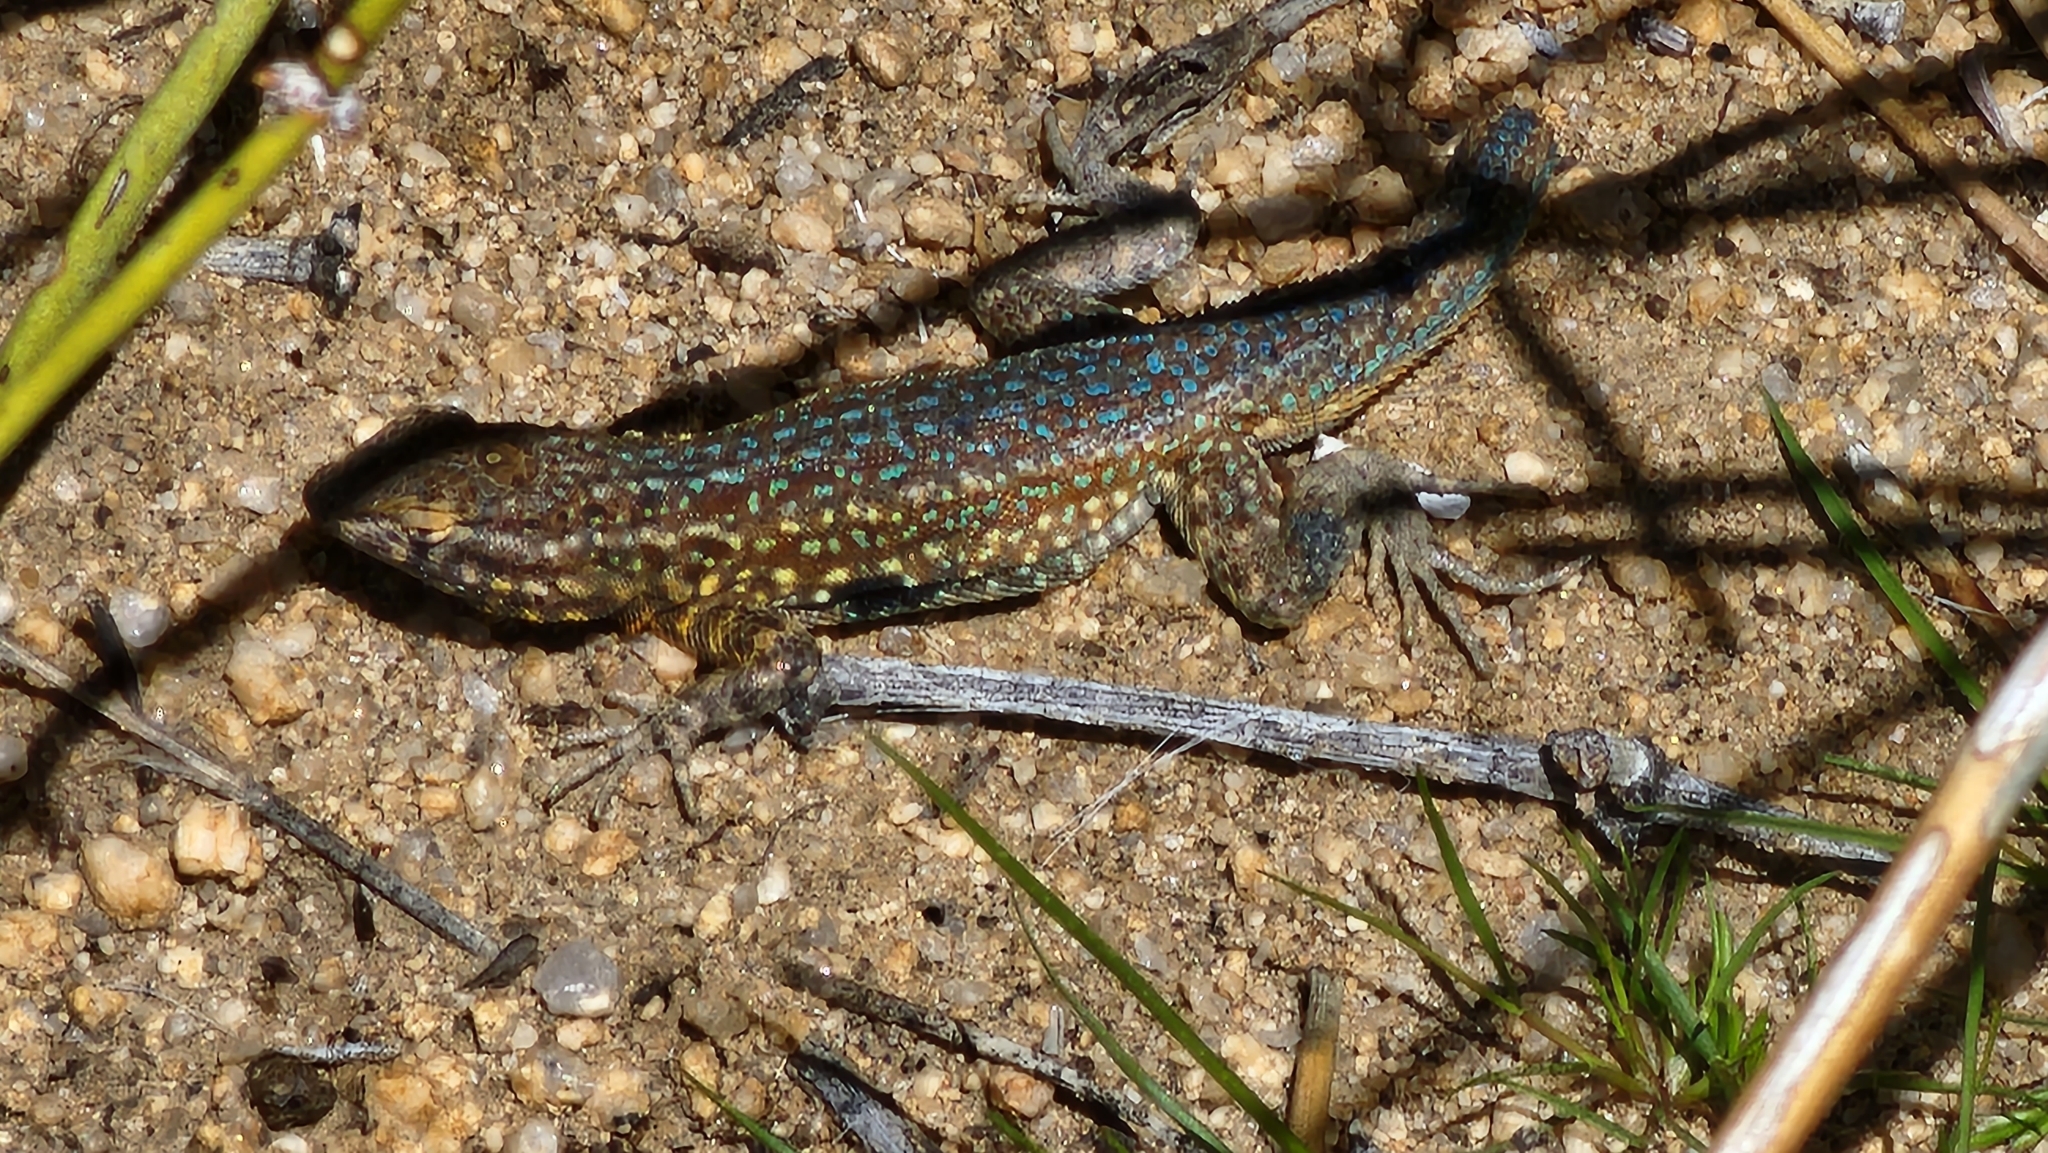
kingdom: Animalia
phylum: Chordata
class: Squamata
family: Phrynosomatidae
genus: Uta
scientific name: Uta stansburiana
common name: Side-blotched lizard
